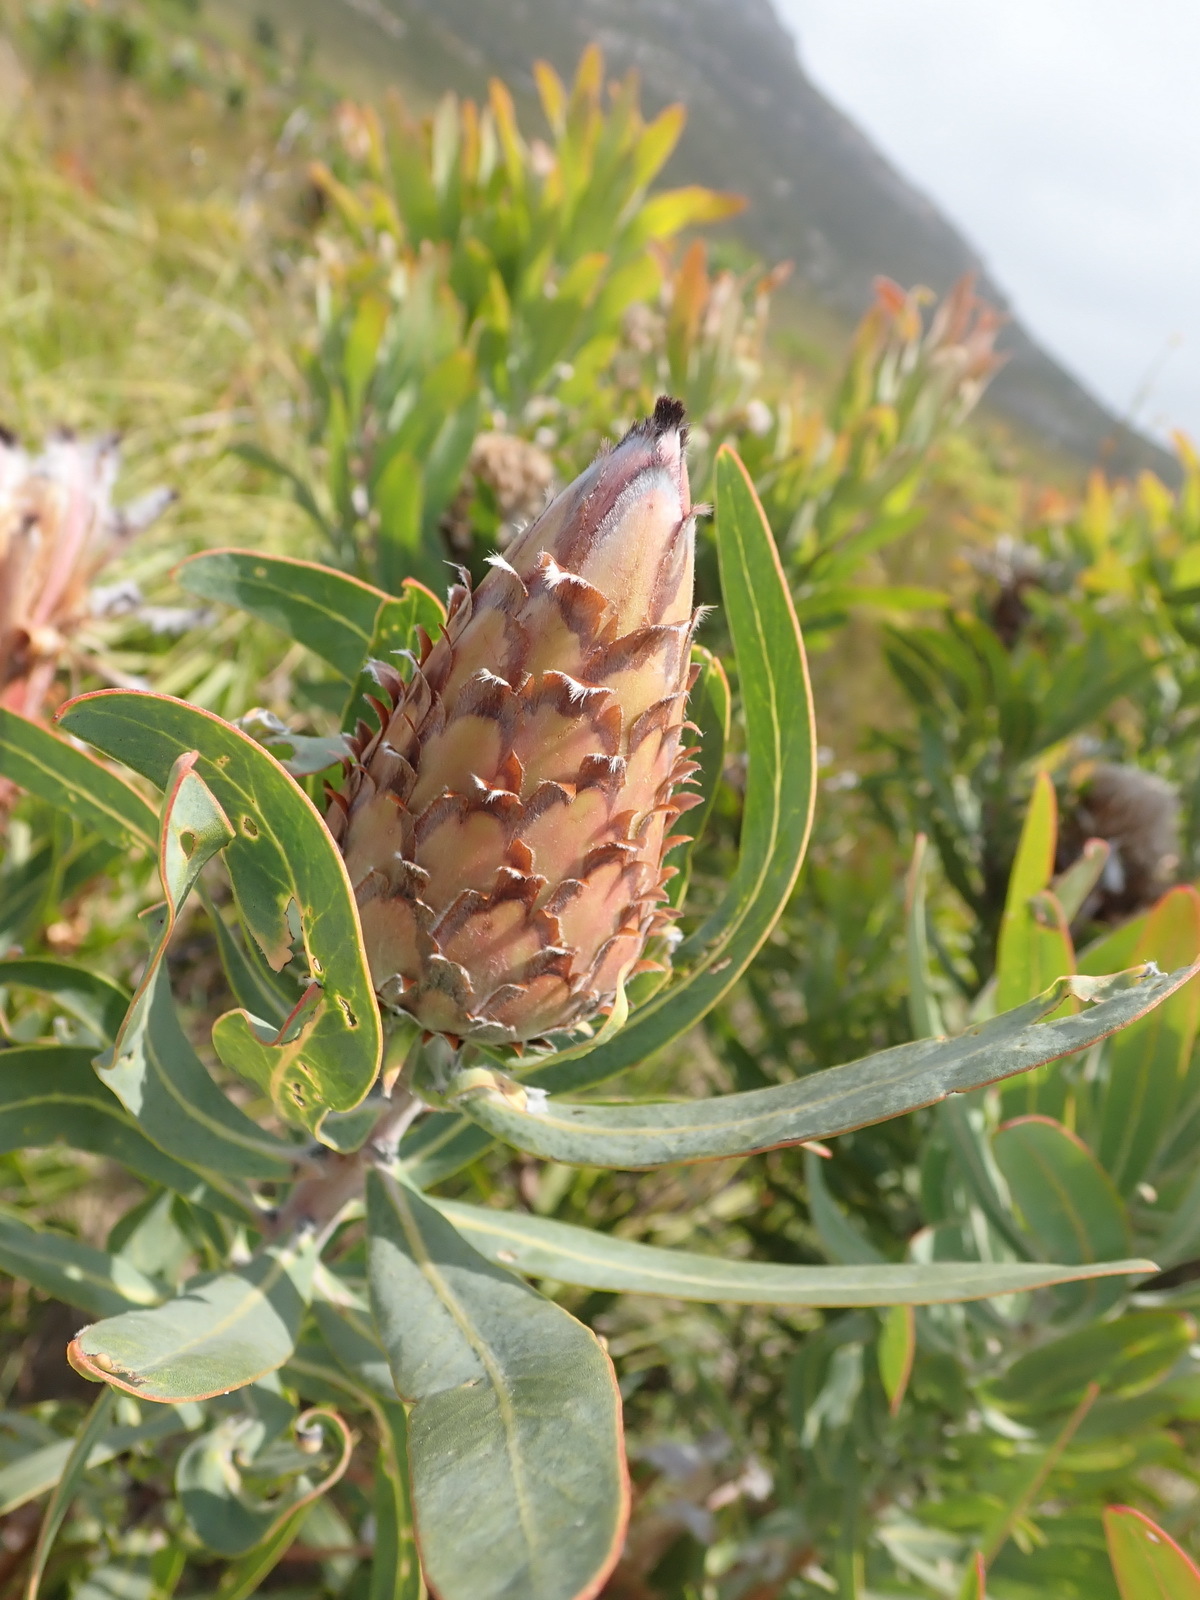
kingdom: Plantae
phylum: Tracheophyta
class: Magnoliopsida
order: Proteales
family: Proteaceae
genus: Protea
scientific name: Protea neriifolia
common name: Blue sugarbush
